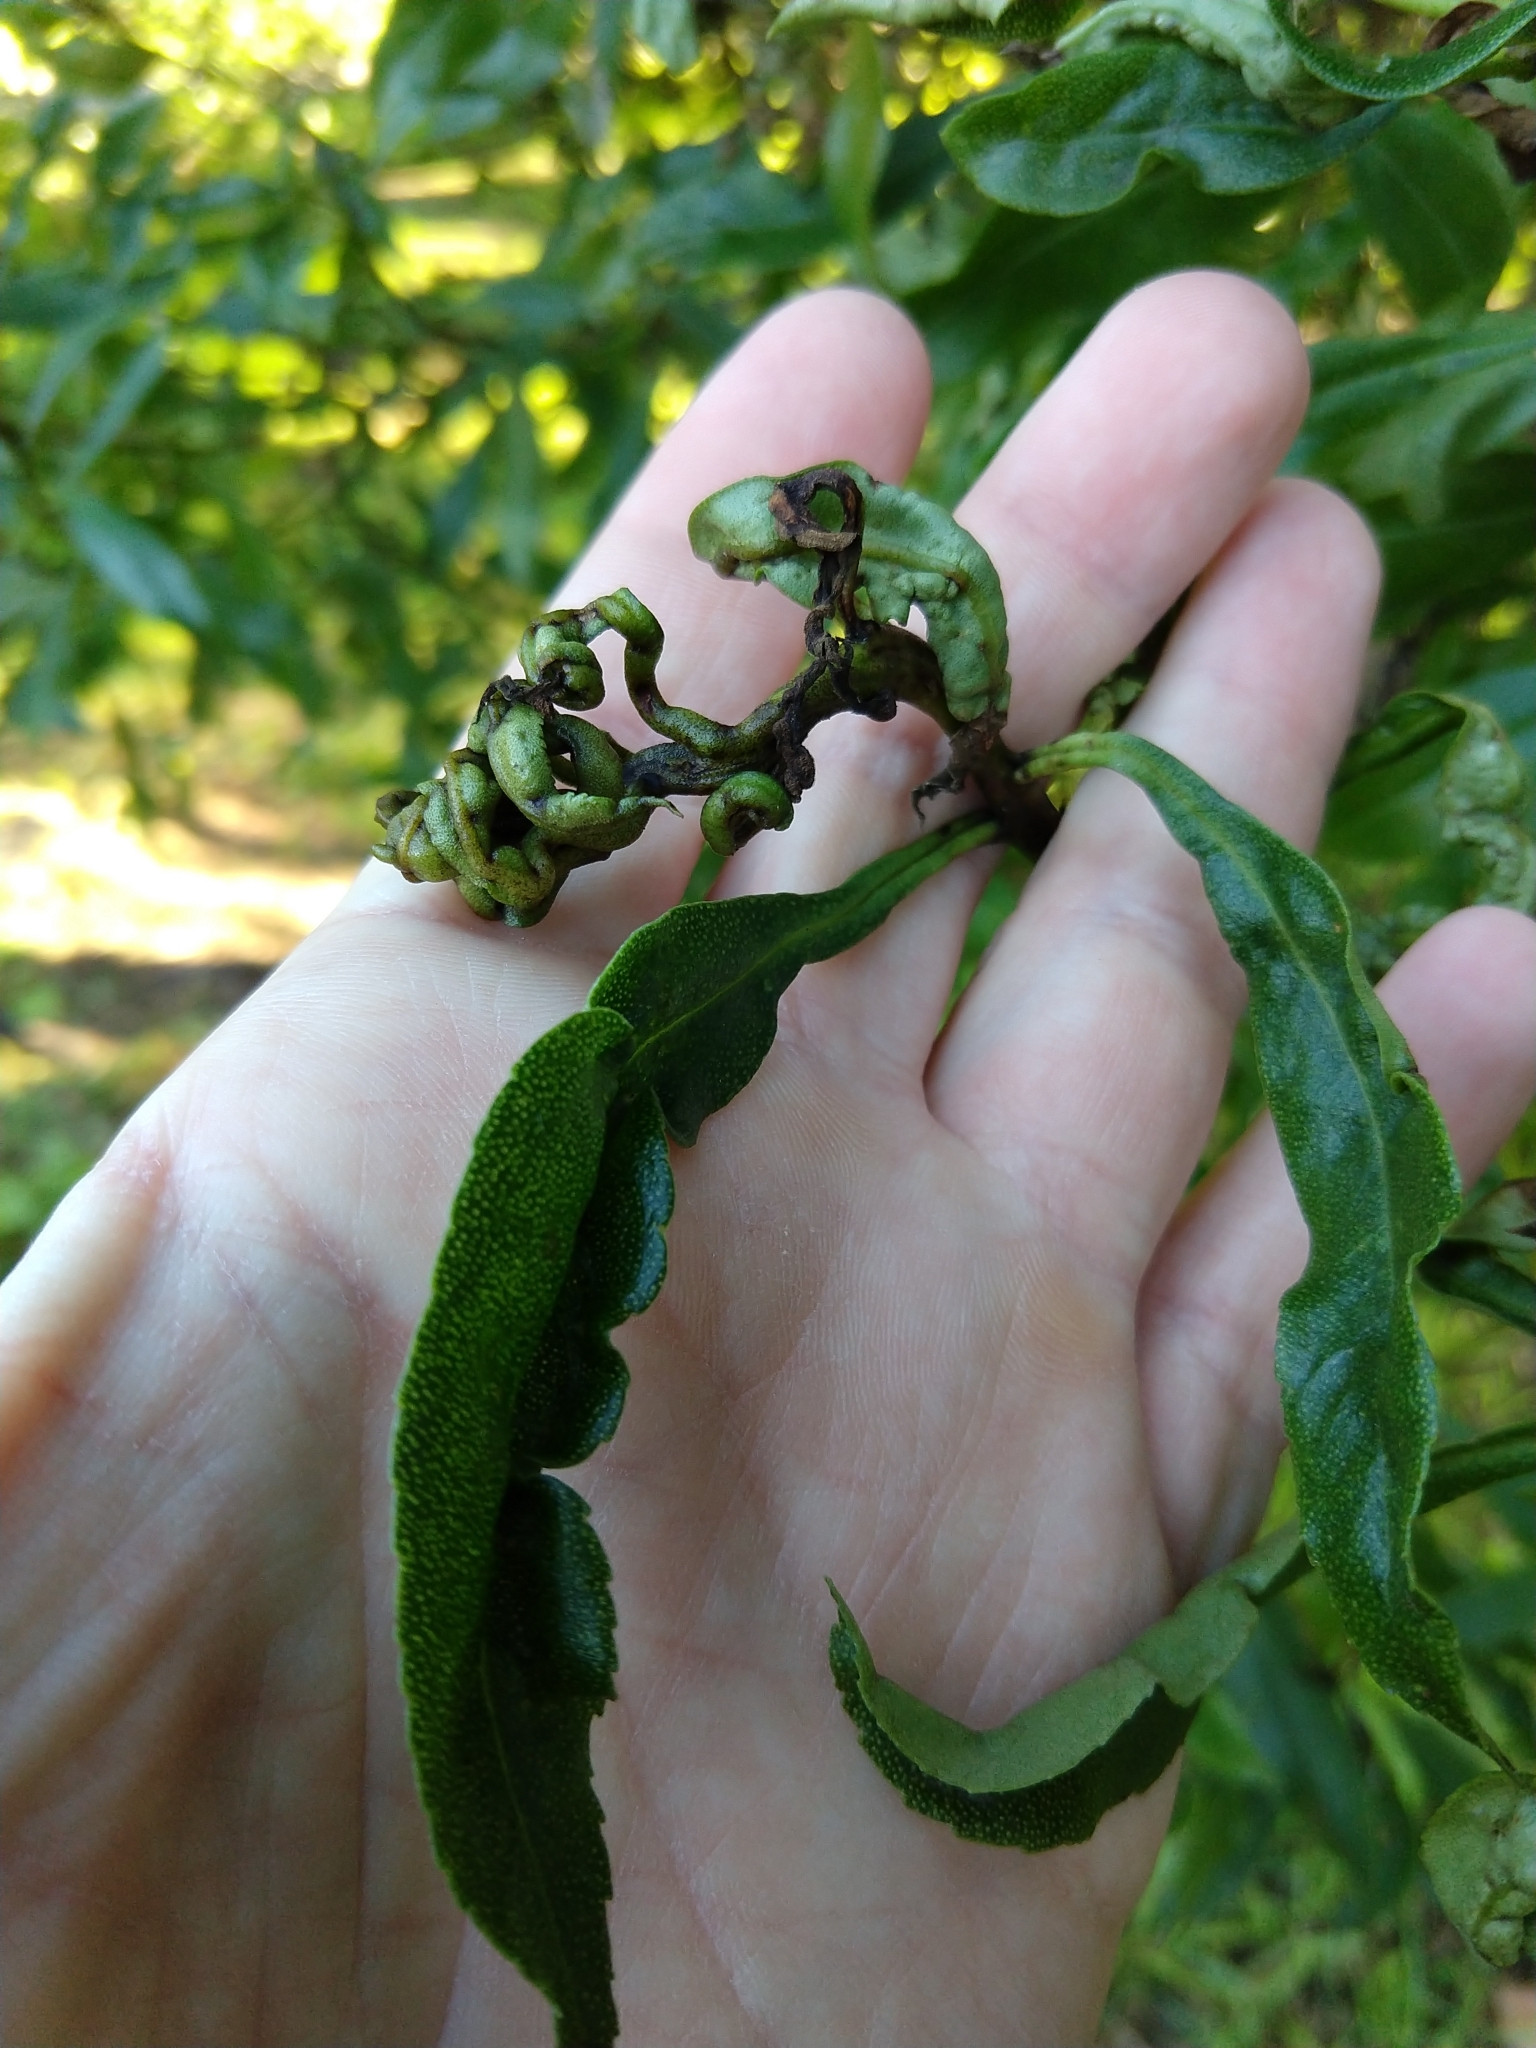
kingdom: Animalia
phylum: Arthropoda
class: Insecta
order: Thysanoptera
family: Phlaeothripidae
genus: Klambothrips
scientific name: Klambothrips myopori
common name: Myoporum thrips
